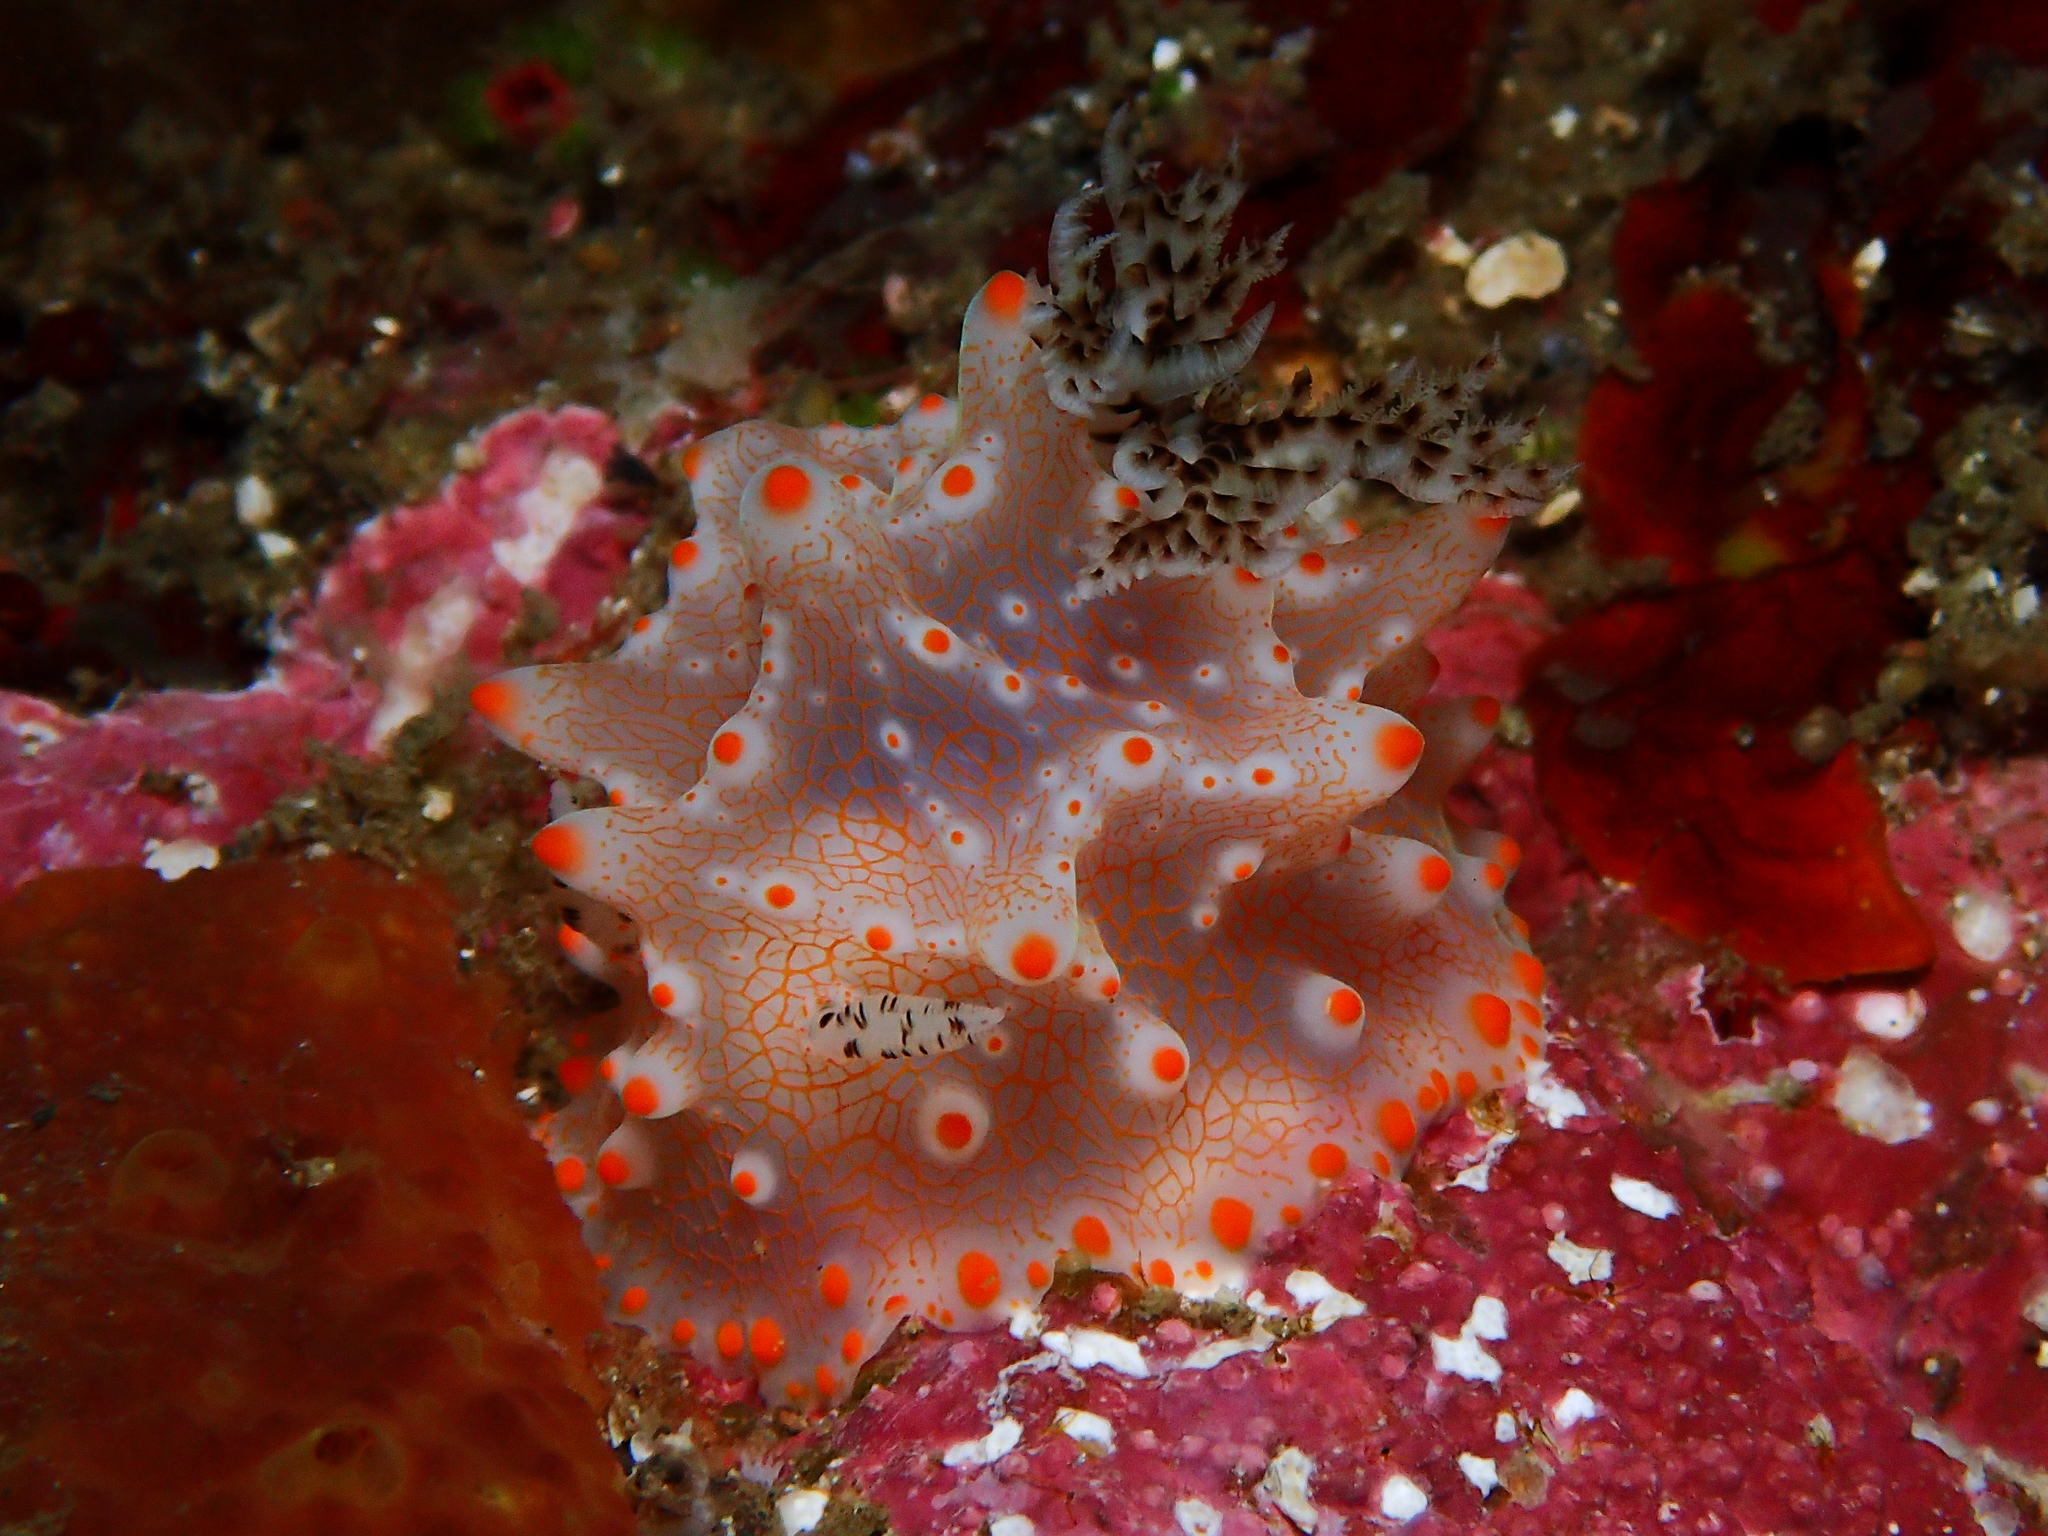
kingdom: Animalia
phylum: Mollusca
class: Gastropoda
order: Nudibranchia
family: Discodorididae
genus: Halgerda
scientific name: Halgerda batangas
